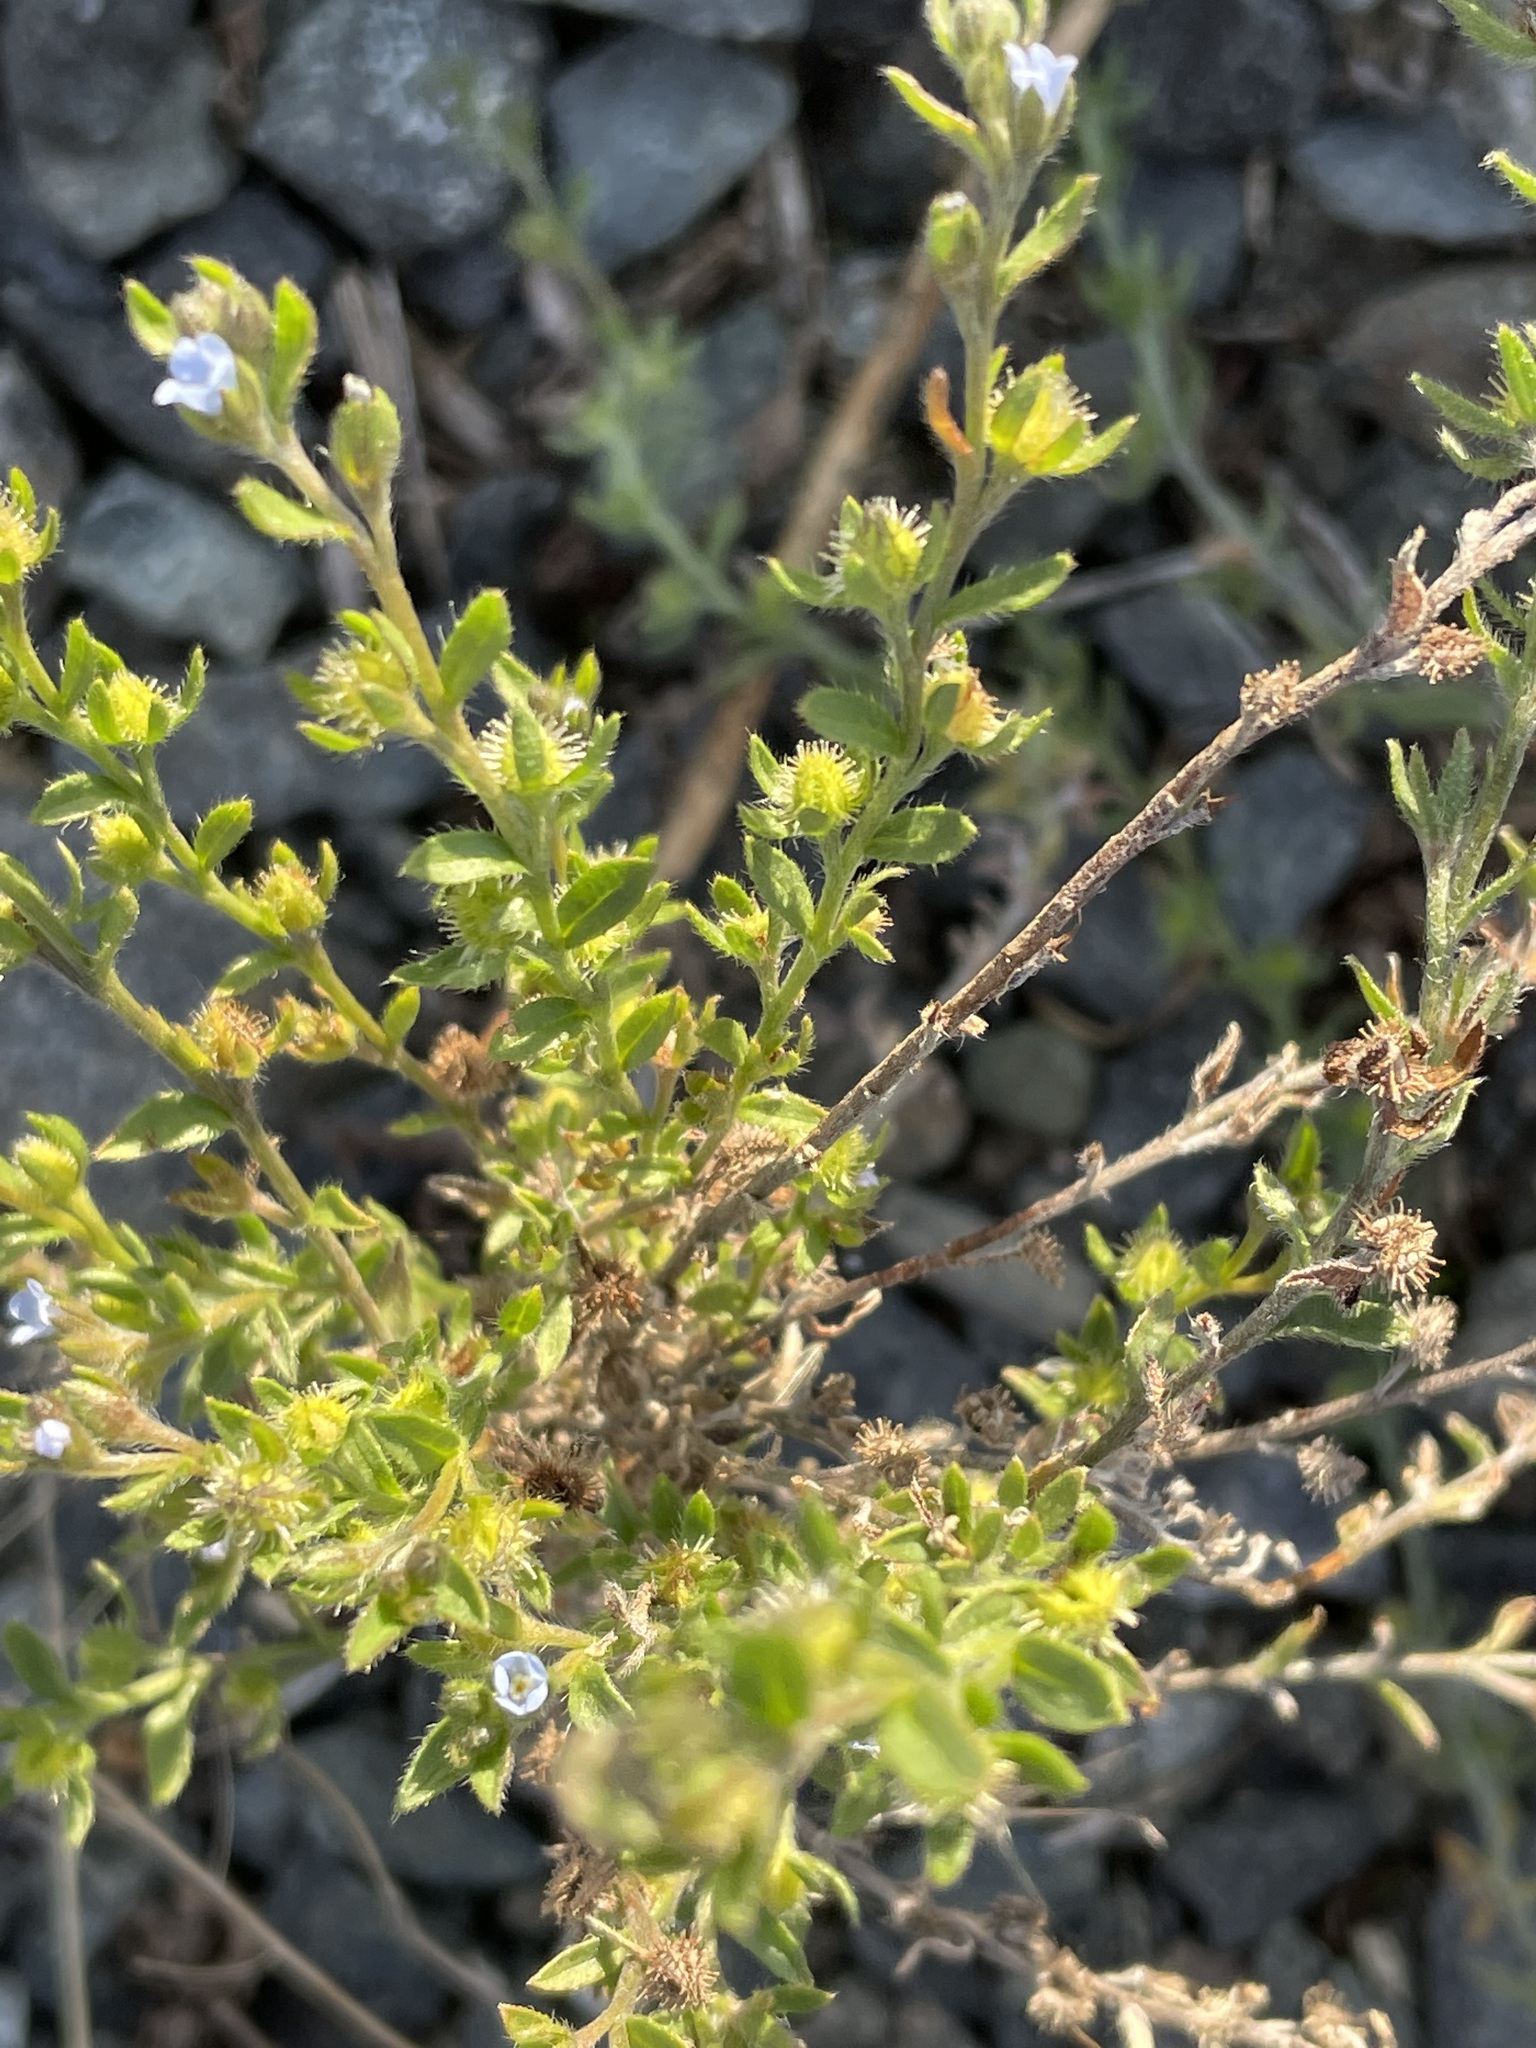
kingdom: Plantae
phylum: Tracheophyta
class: Magnoliopsida
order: Boraginales
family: Boraginaceae
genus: Lappula
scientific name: Lappula squarrosa
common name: European stickseed
